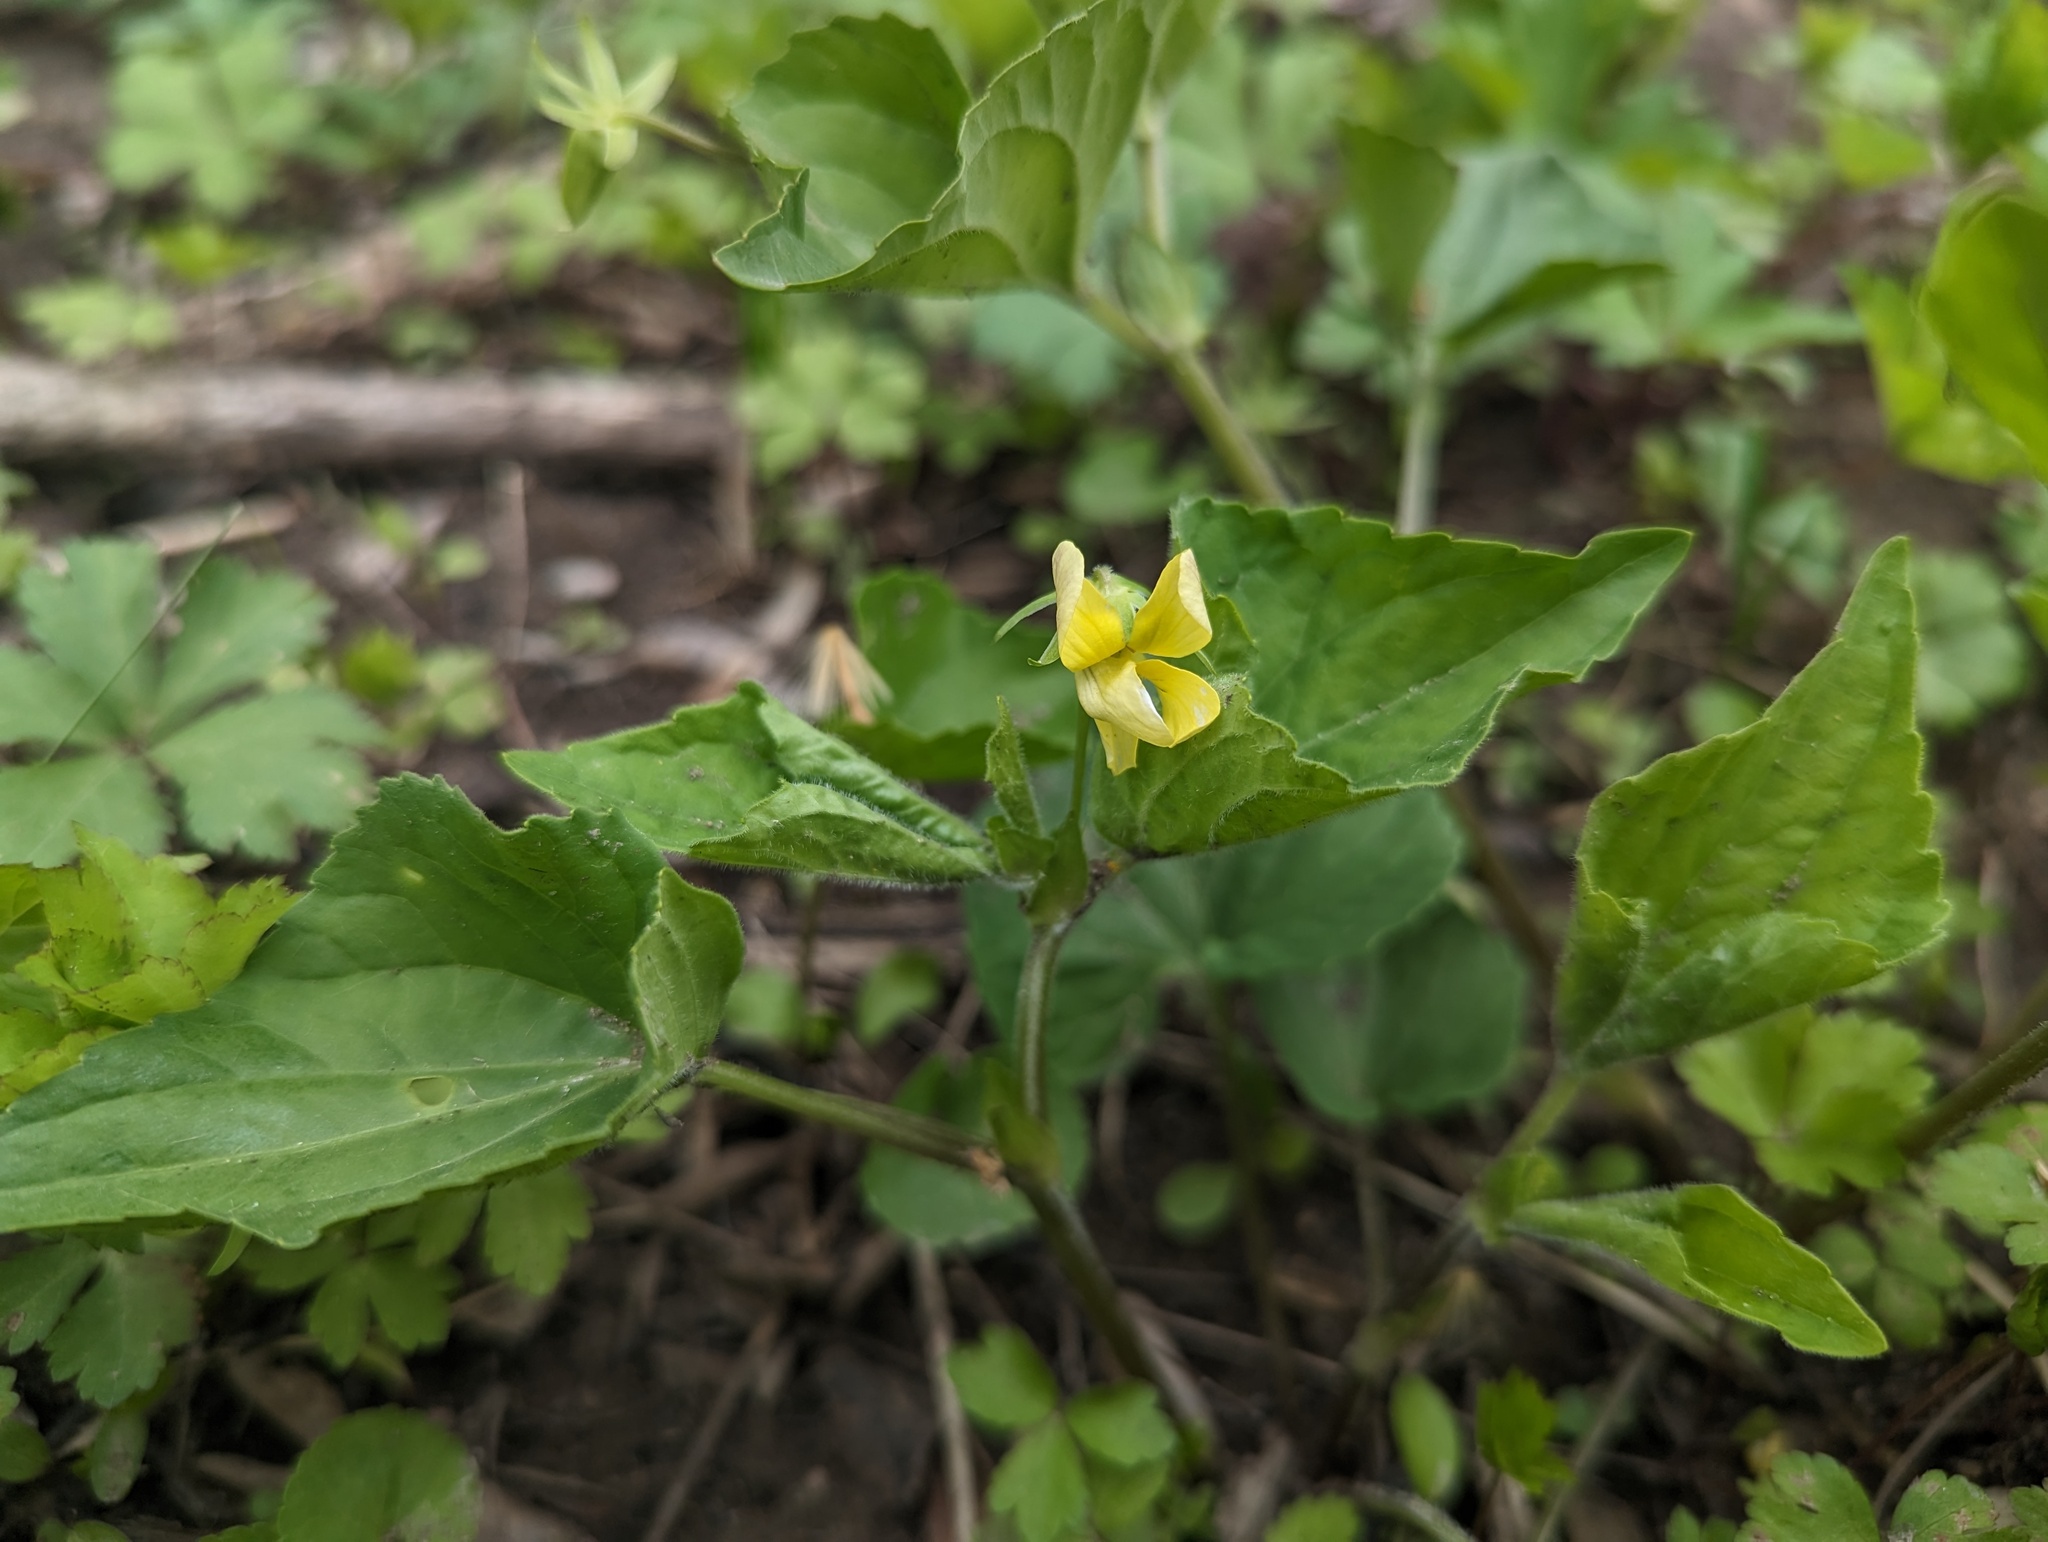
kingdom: Plantae
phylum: Tracheophyta
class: Magnoliopsida
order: Malpighiales
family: Violaceae
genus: Viola
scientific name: Viola eriocarpa
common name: Smooth yellow violet
